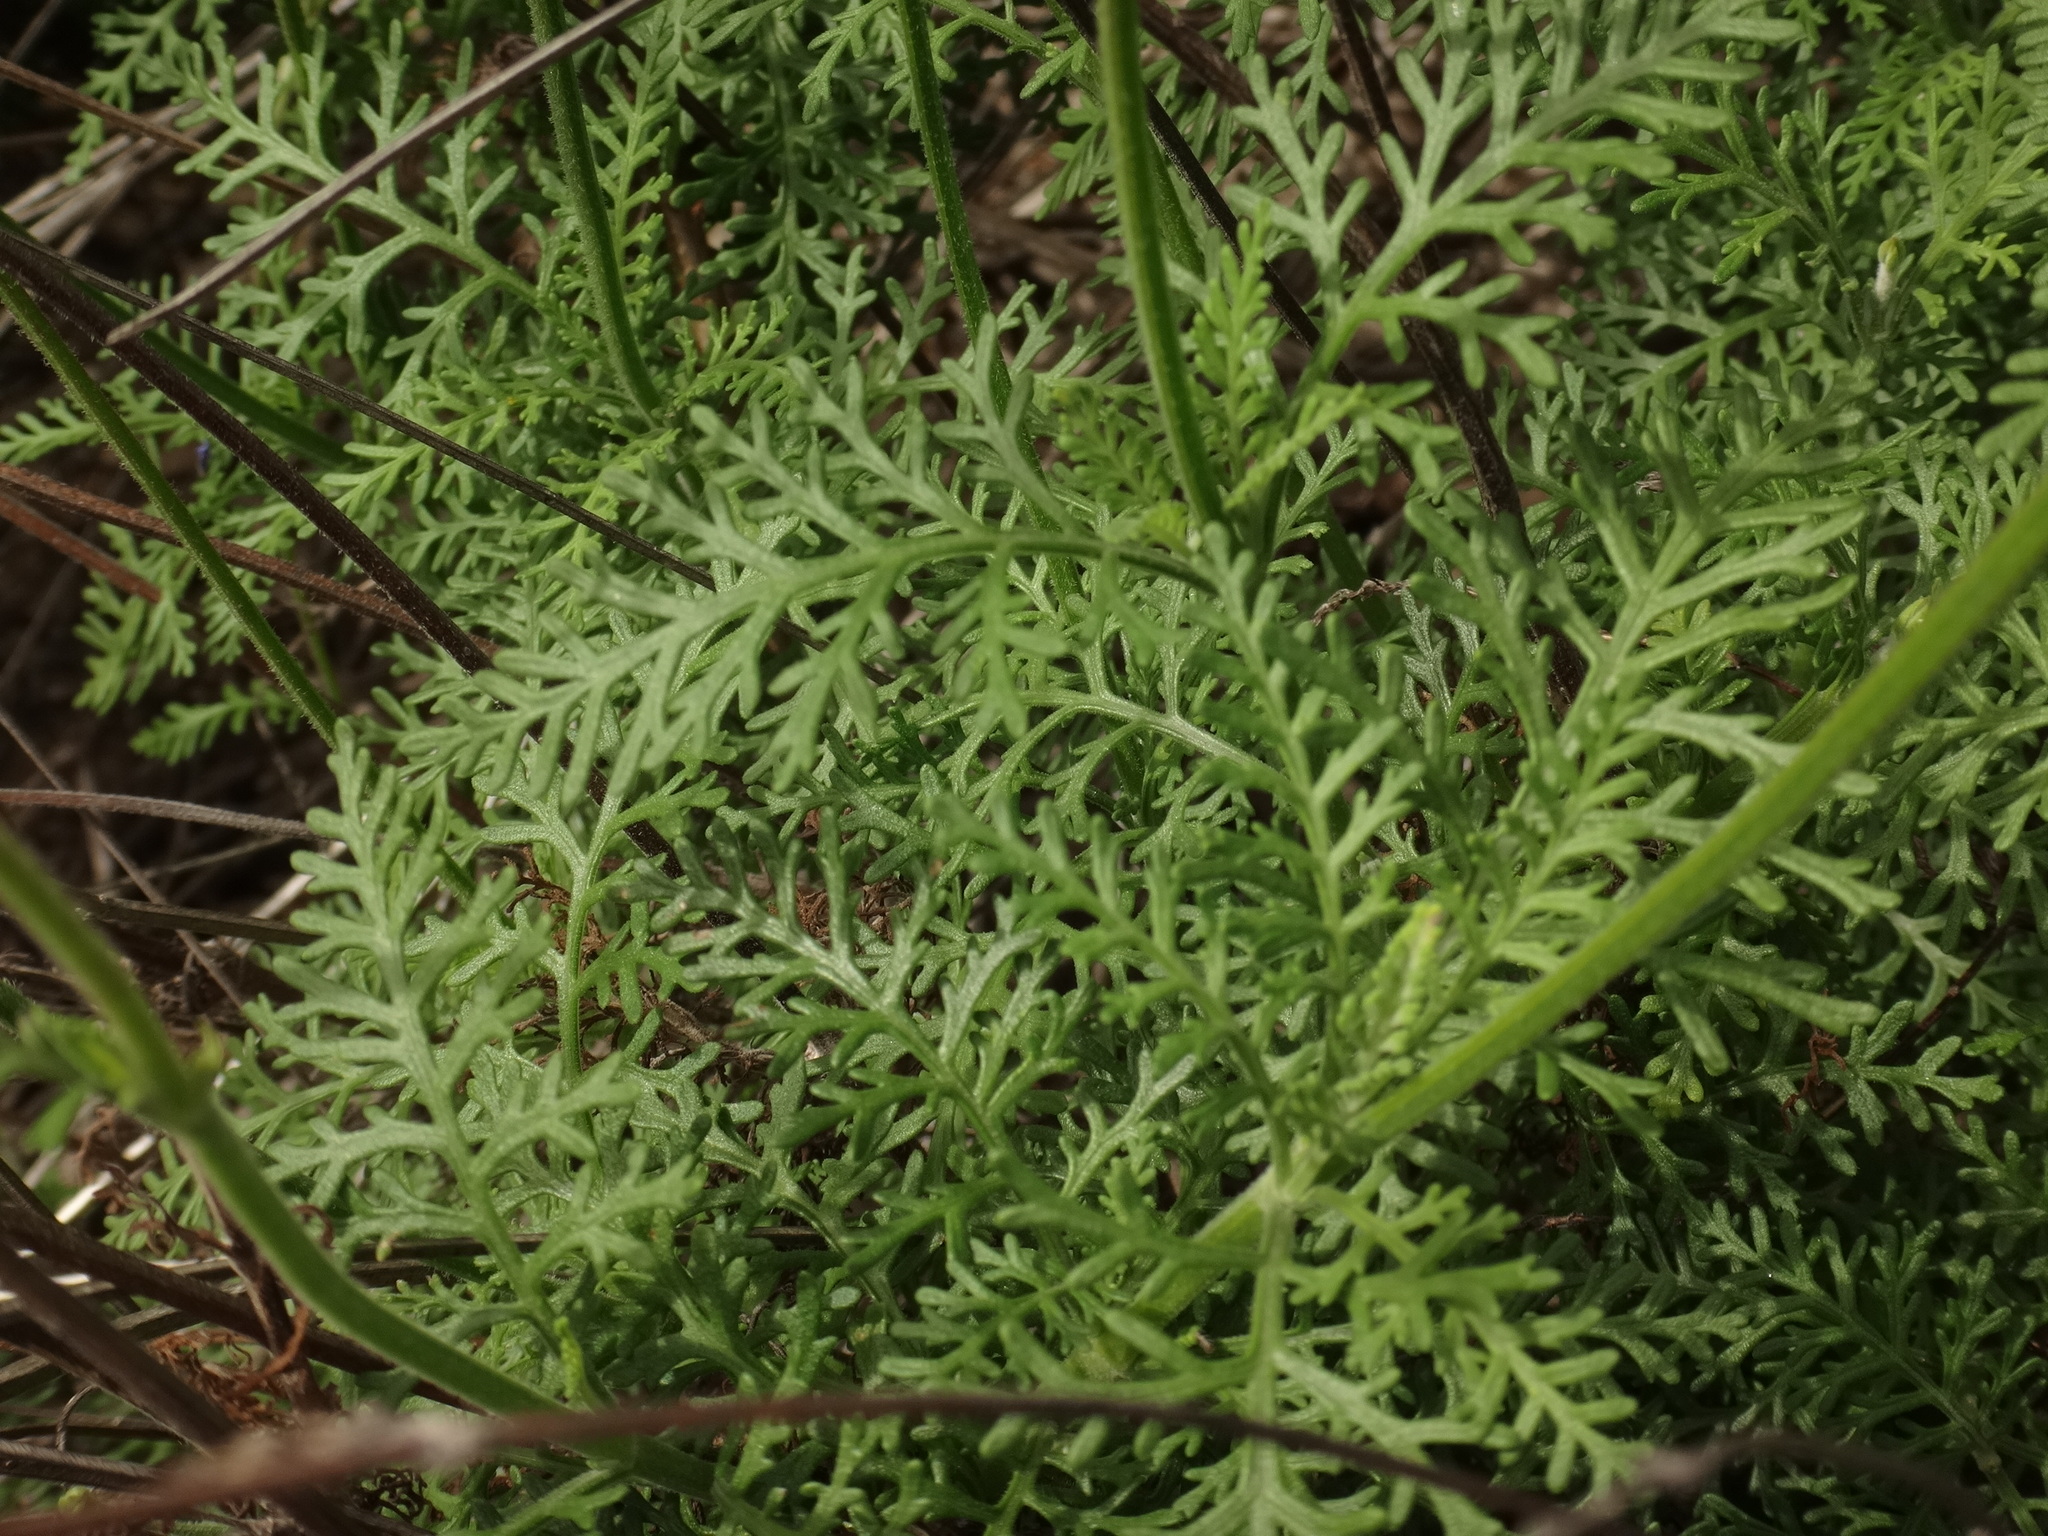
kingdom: Plantae
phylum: Tracheophyta
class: Magnoliopsida
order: Lamiales
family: Lamiaceae
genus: Lavandula
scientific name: Lavandula canariensis
